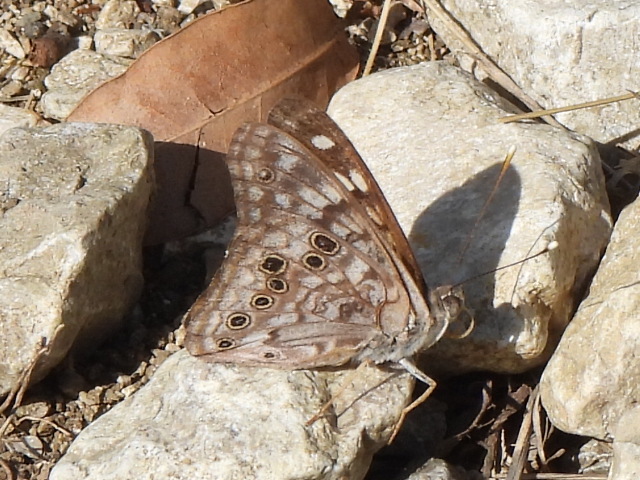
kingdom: Animalia
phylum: Arthropoda
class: Insecta
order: Lepidoptera
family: Nymphalidae
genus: Asterocampa
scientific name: Asterocampa celtis
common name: Hackberry emperor
